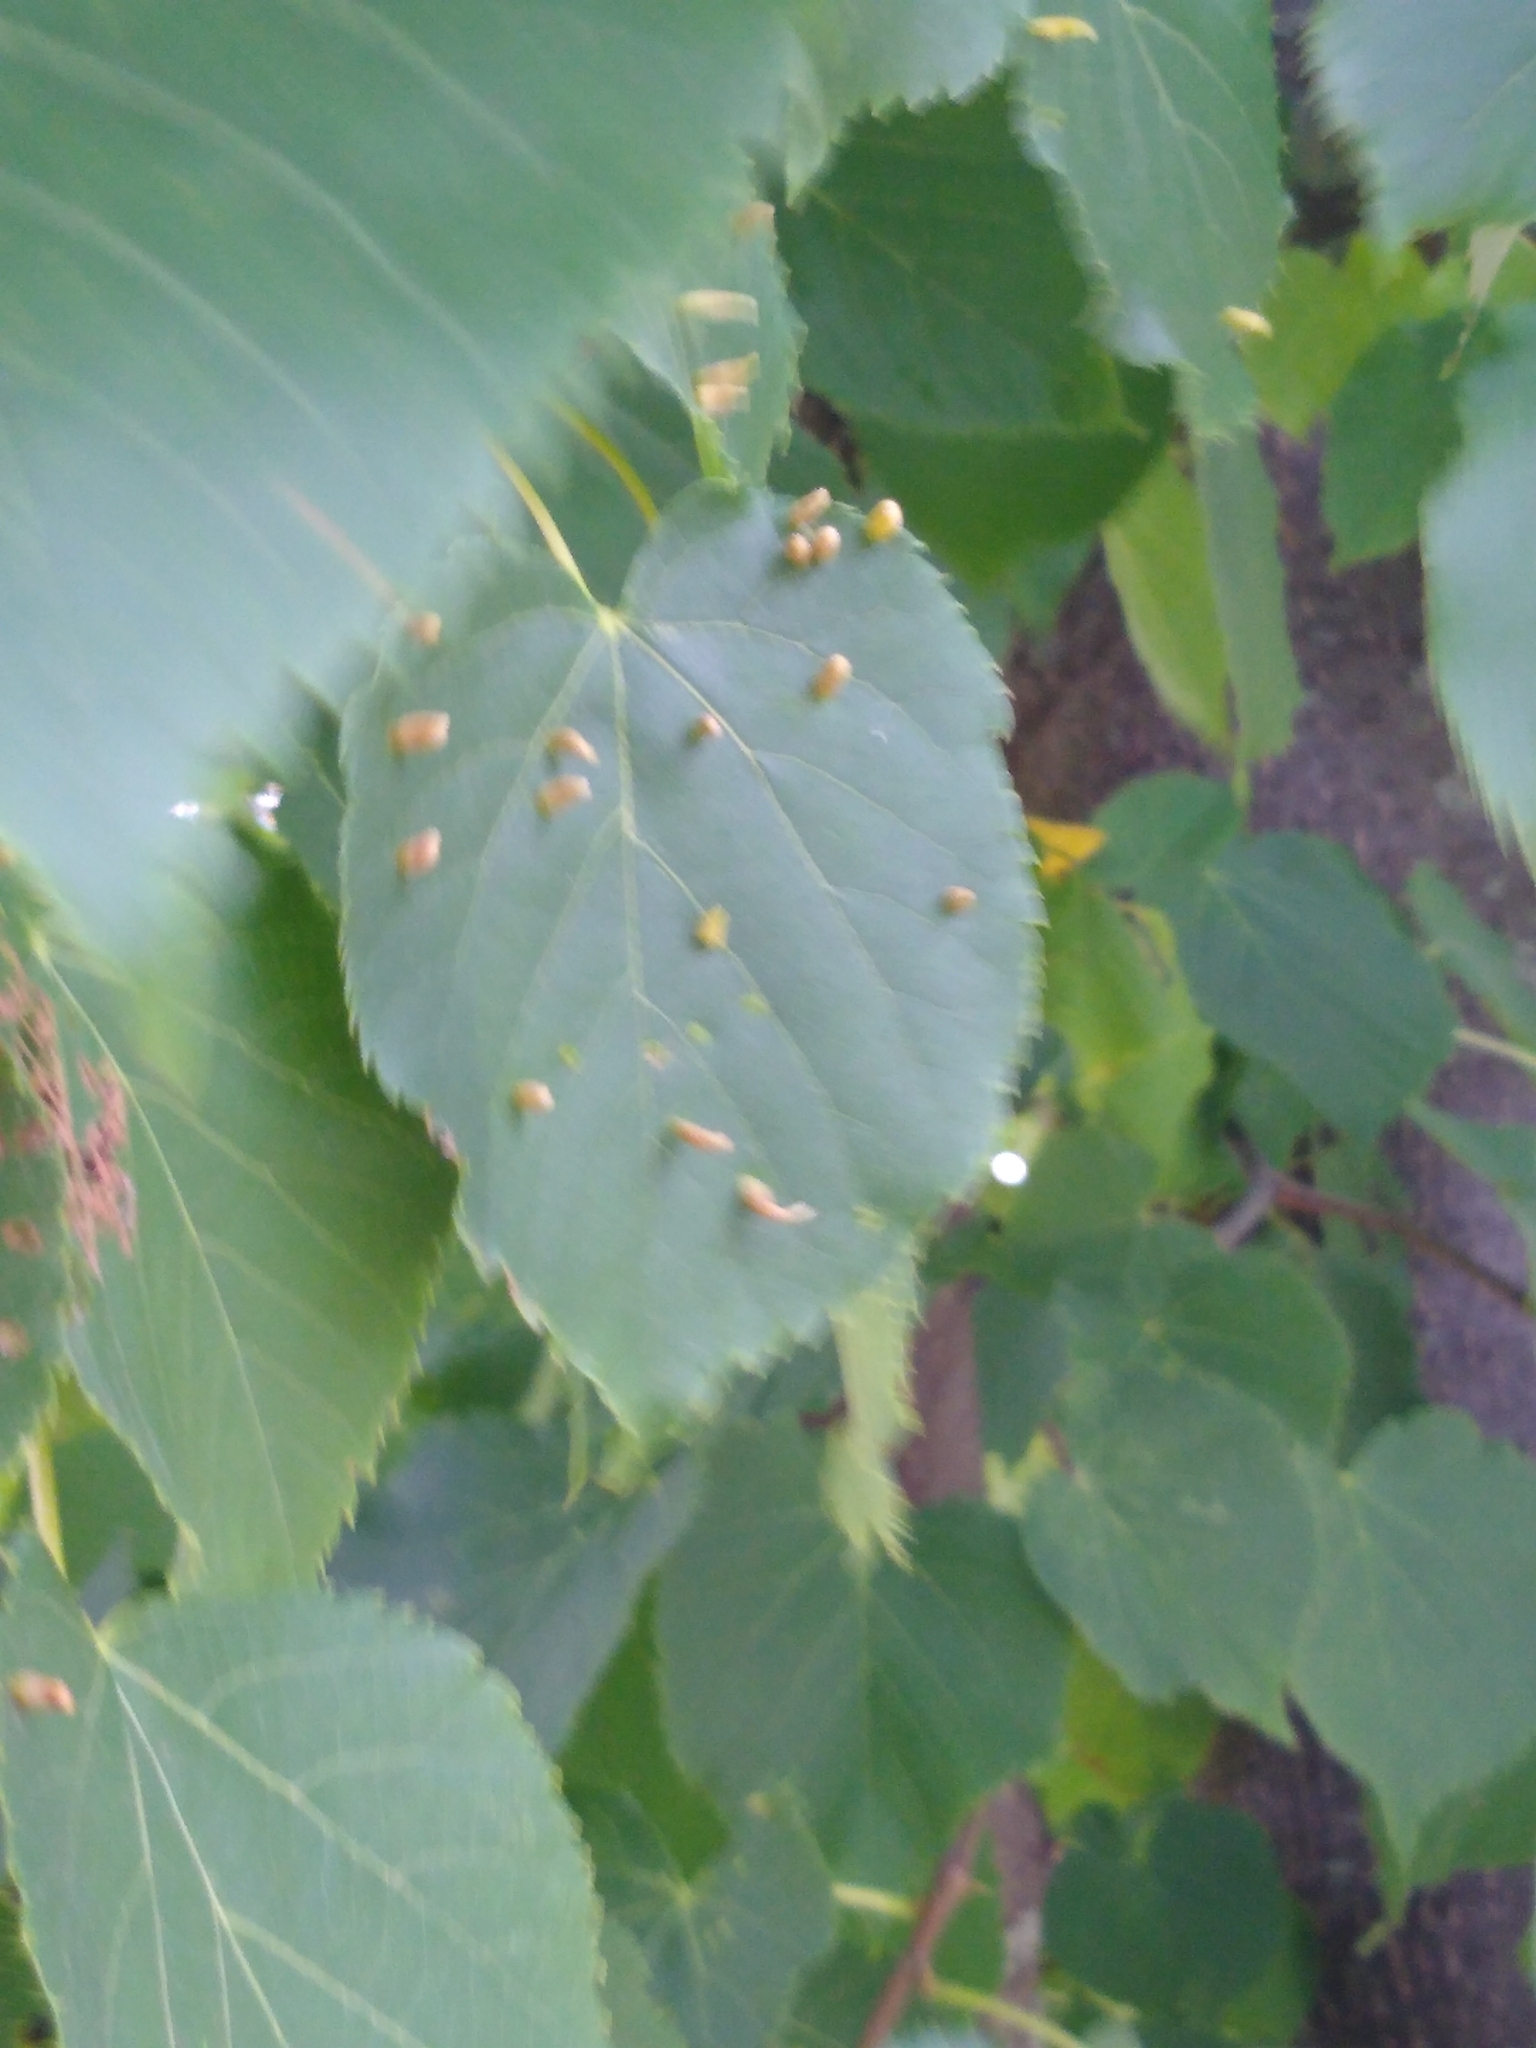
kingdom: Animalia
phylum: Arthropoda
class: Arachnida
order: Trombidiformes
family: Eriophyidae
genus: Eriophyes
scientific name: Eriophyes tiliae
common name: Red nail gall mite
